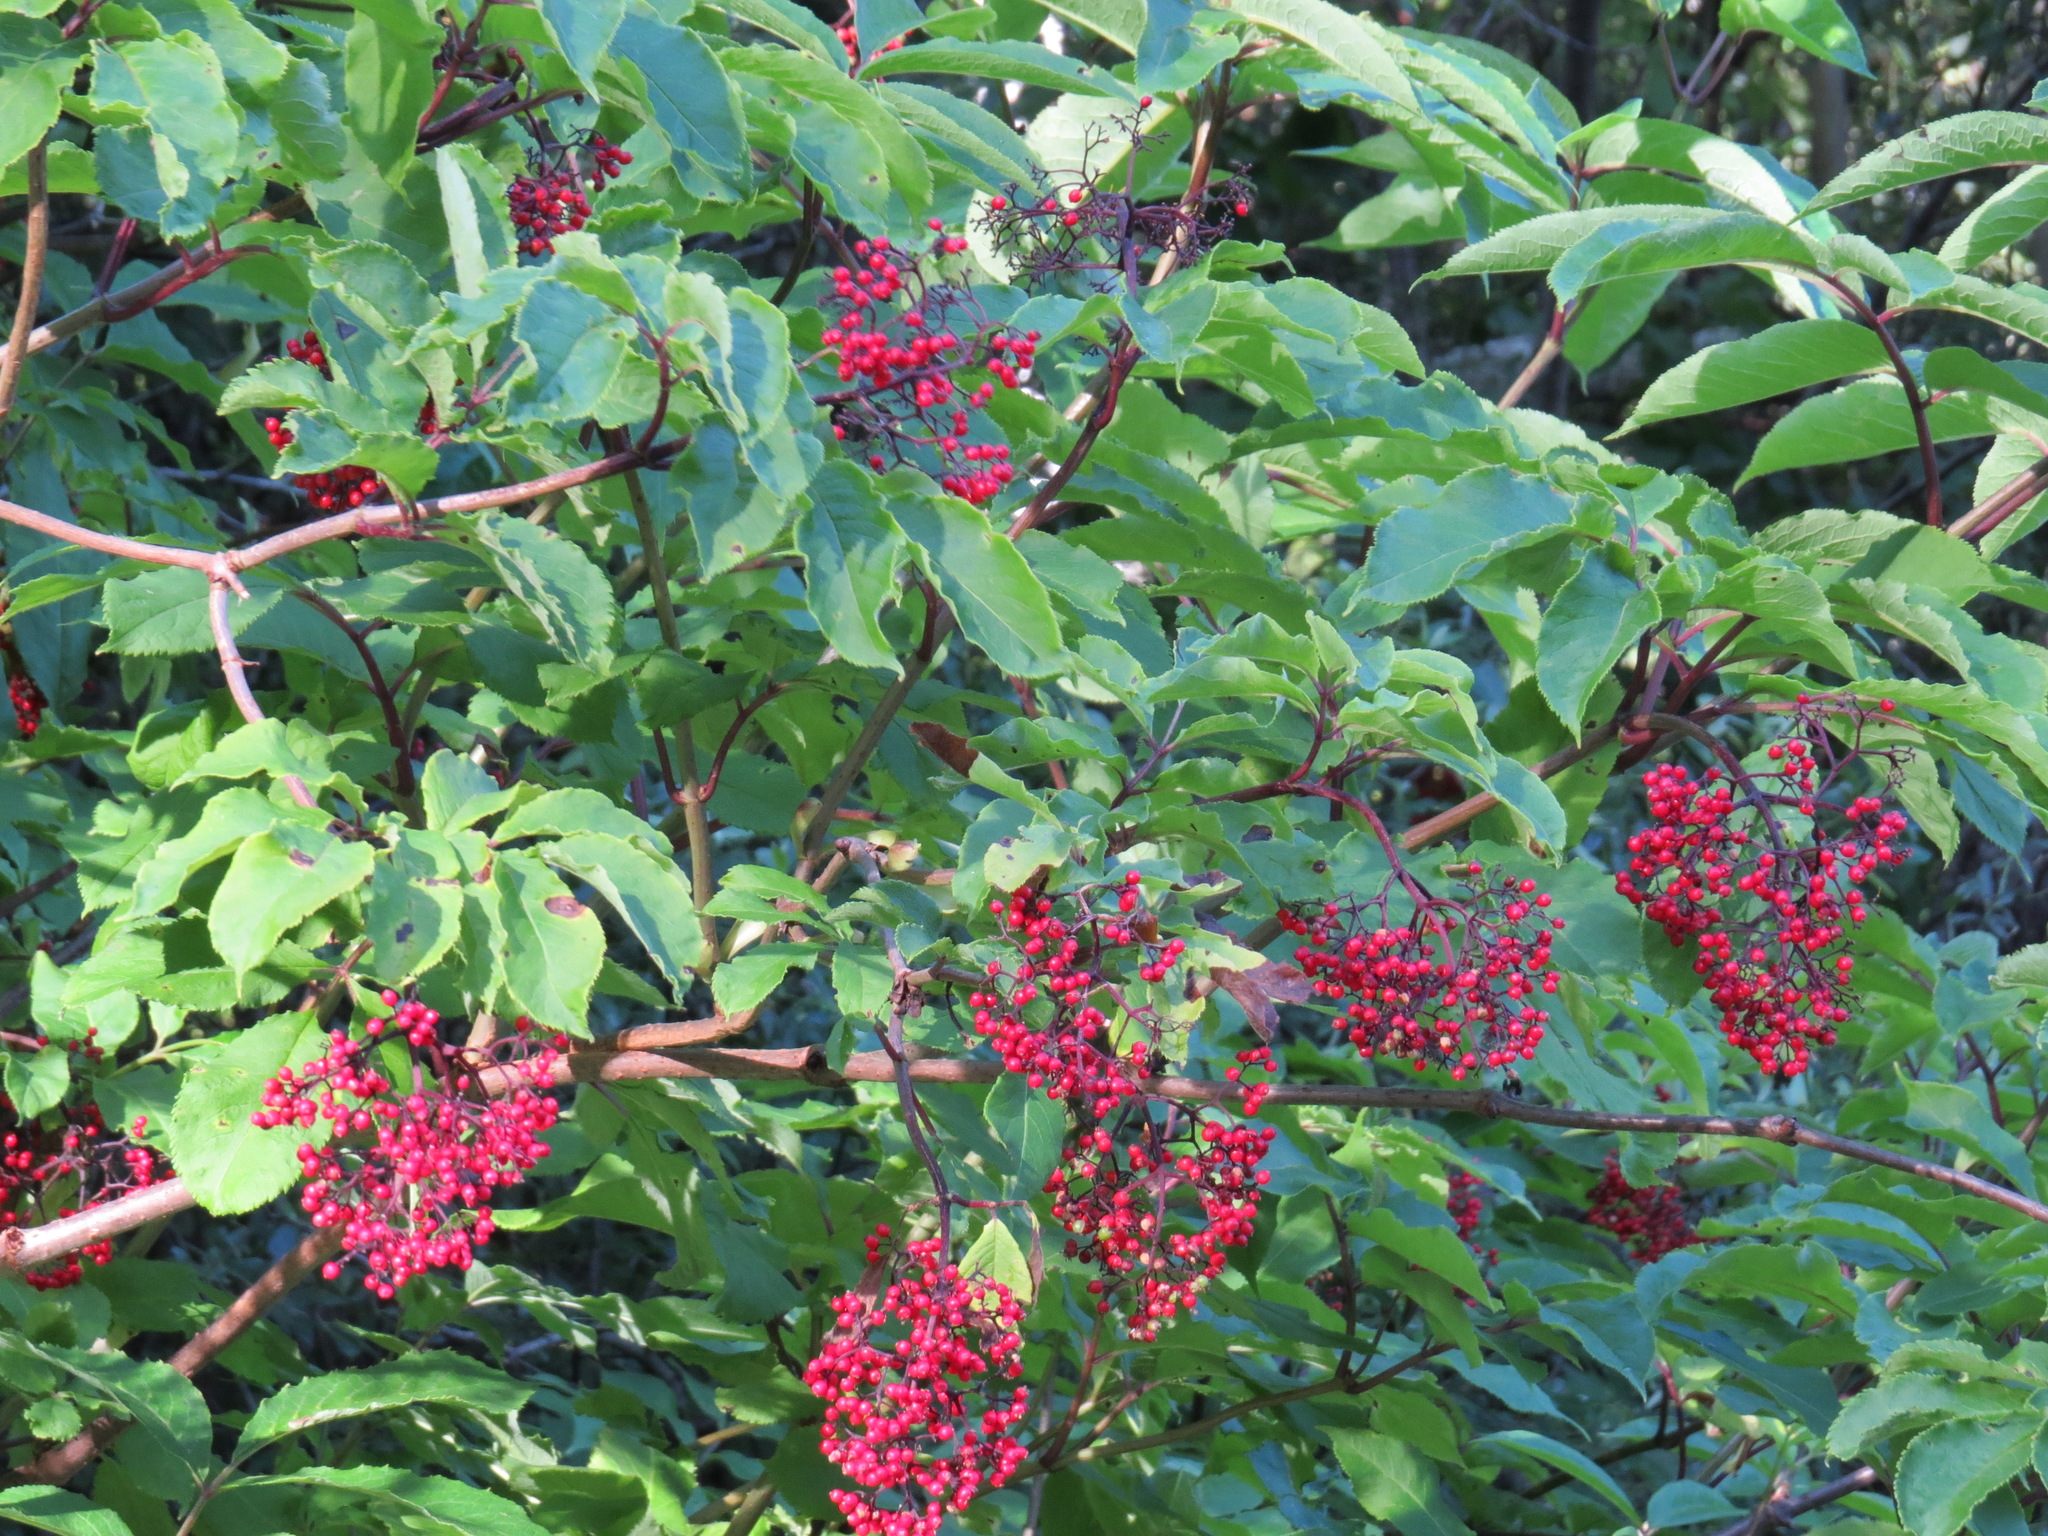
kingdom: Plantae
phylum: Tracheophyta
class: Magnoliopsida
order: Dipsacales
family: Viburnaceae
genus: Sambucus
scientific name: Sambucus racemosa
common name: Red-berried elder
